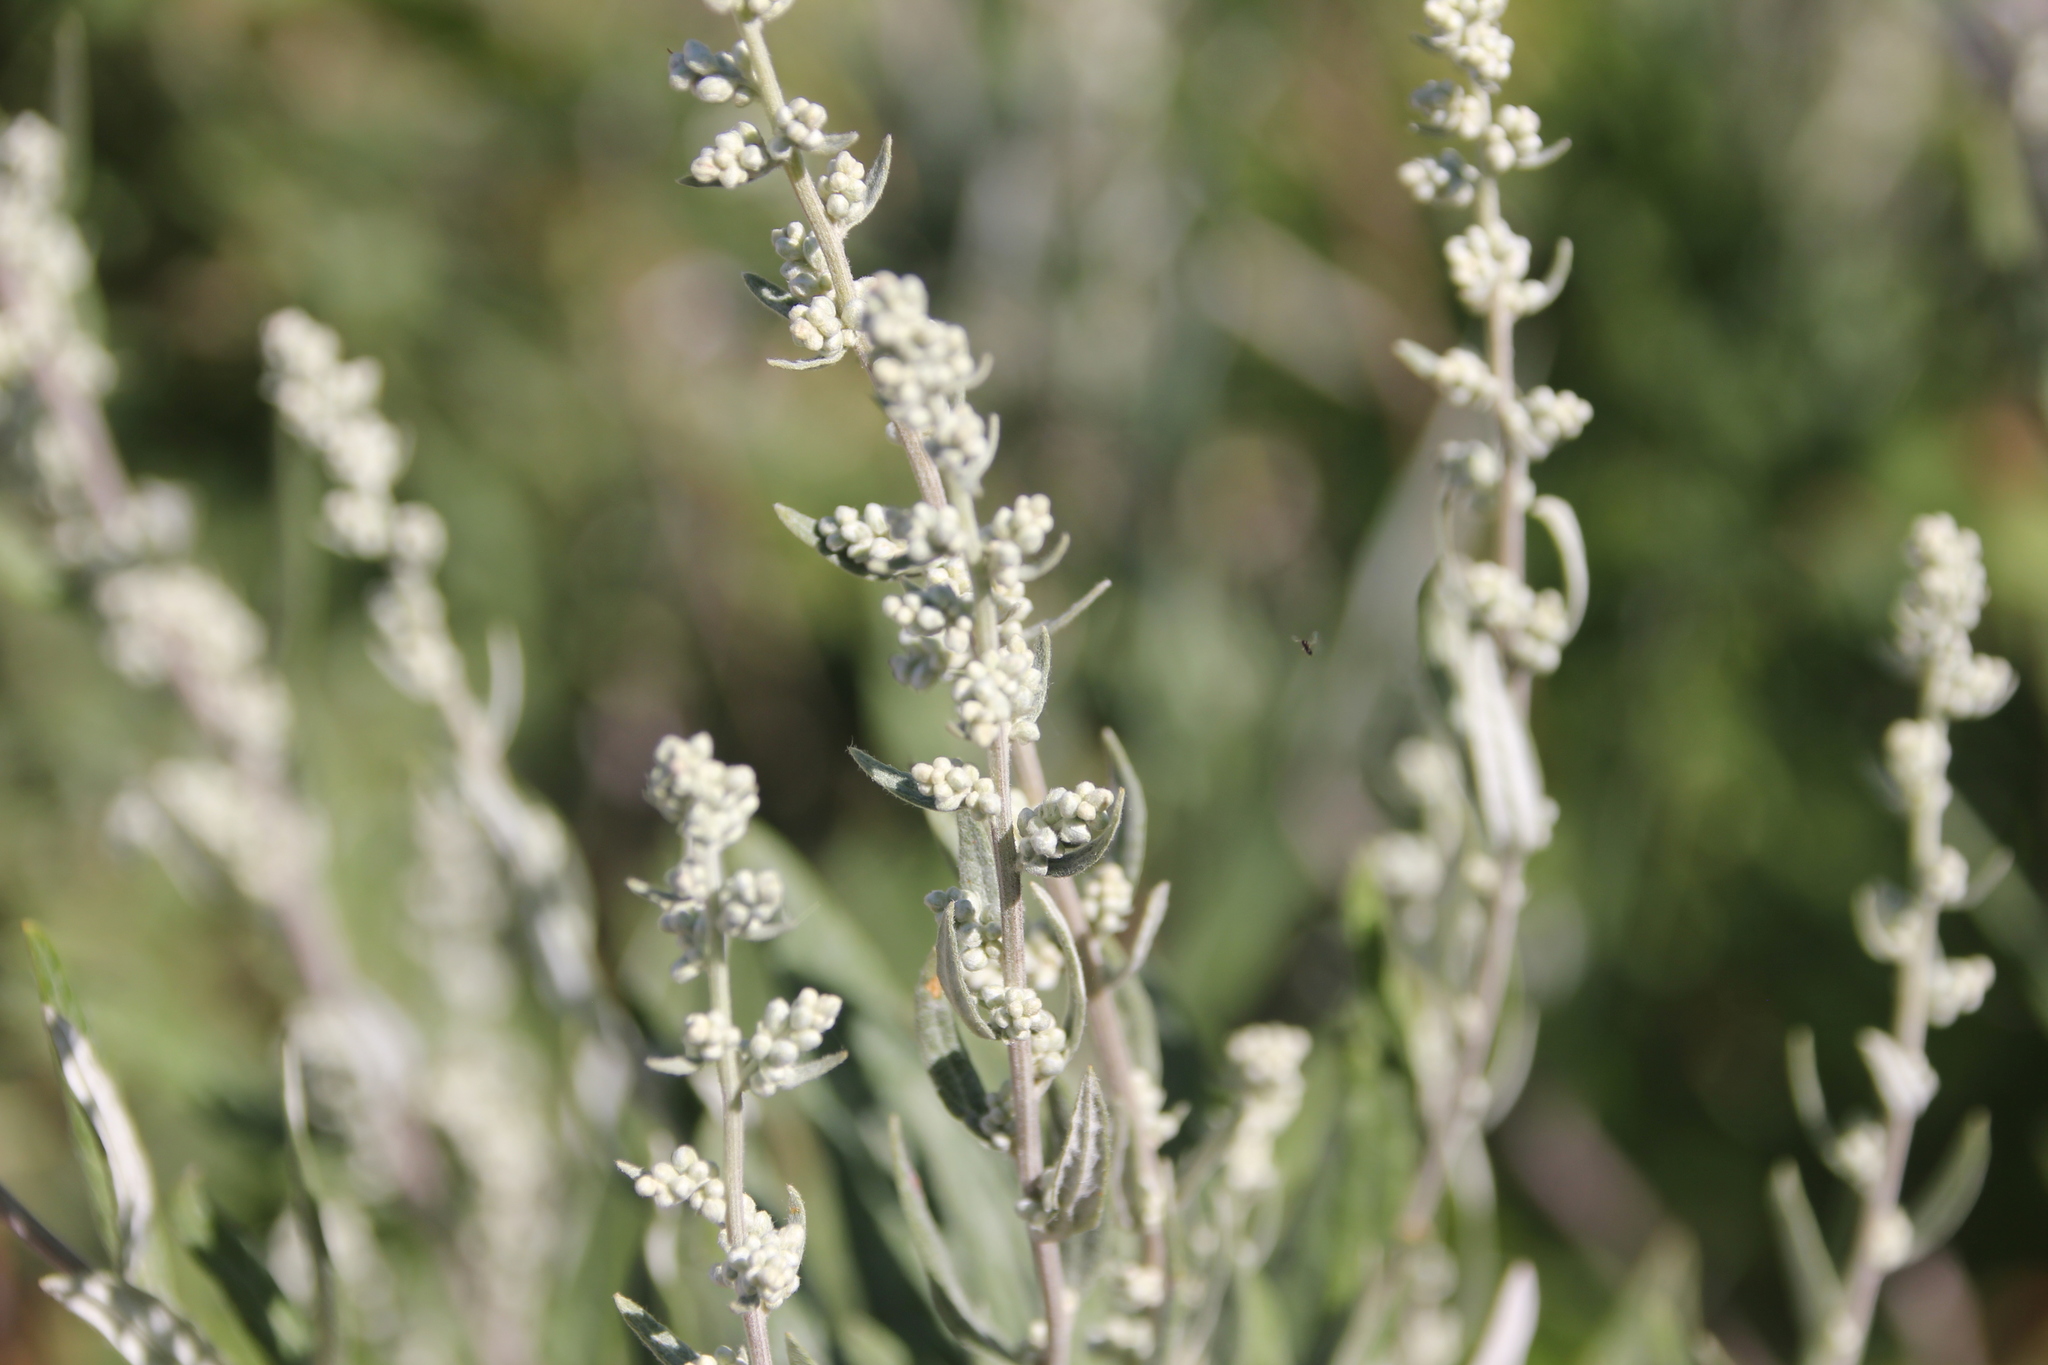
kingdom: Plantae
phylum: Tracheophyta
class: Magnoliopsida
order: Asterales
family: Asteraceae
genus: Artemisia
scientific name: Artemisia douglasiana
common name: Northwest mugwort
